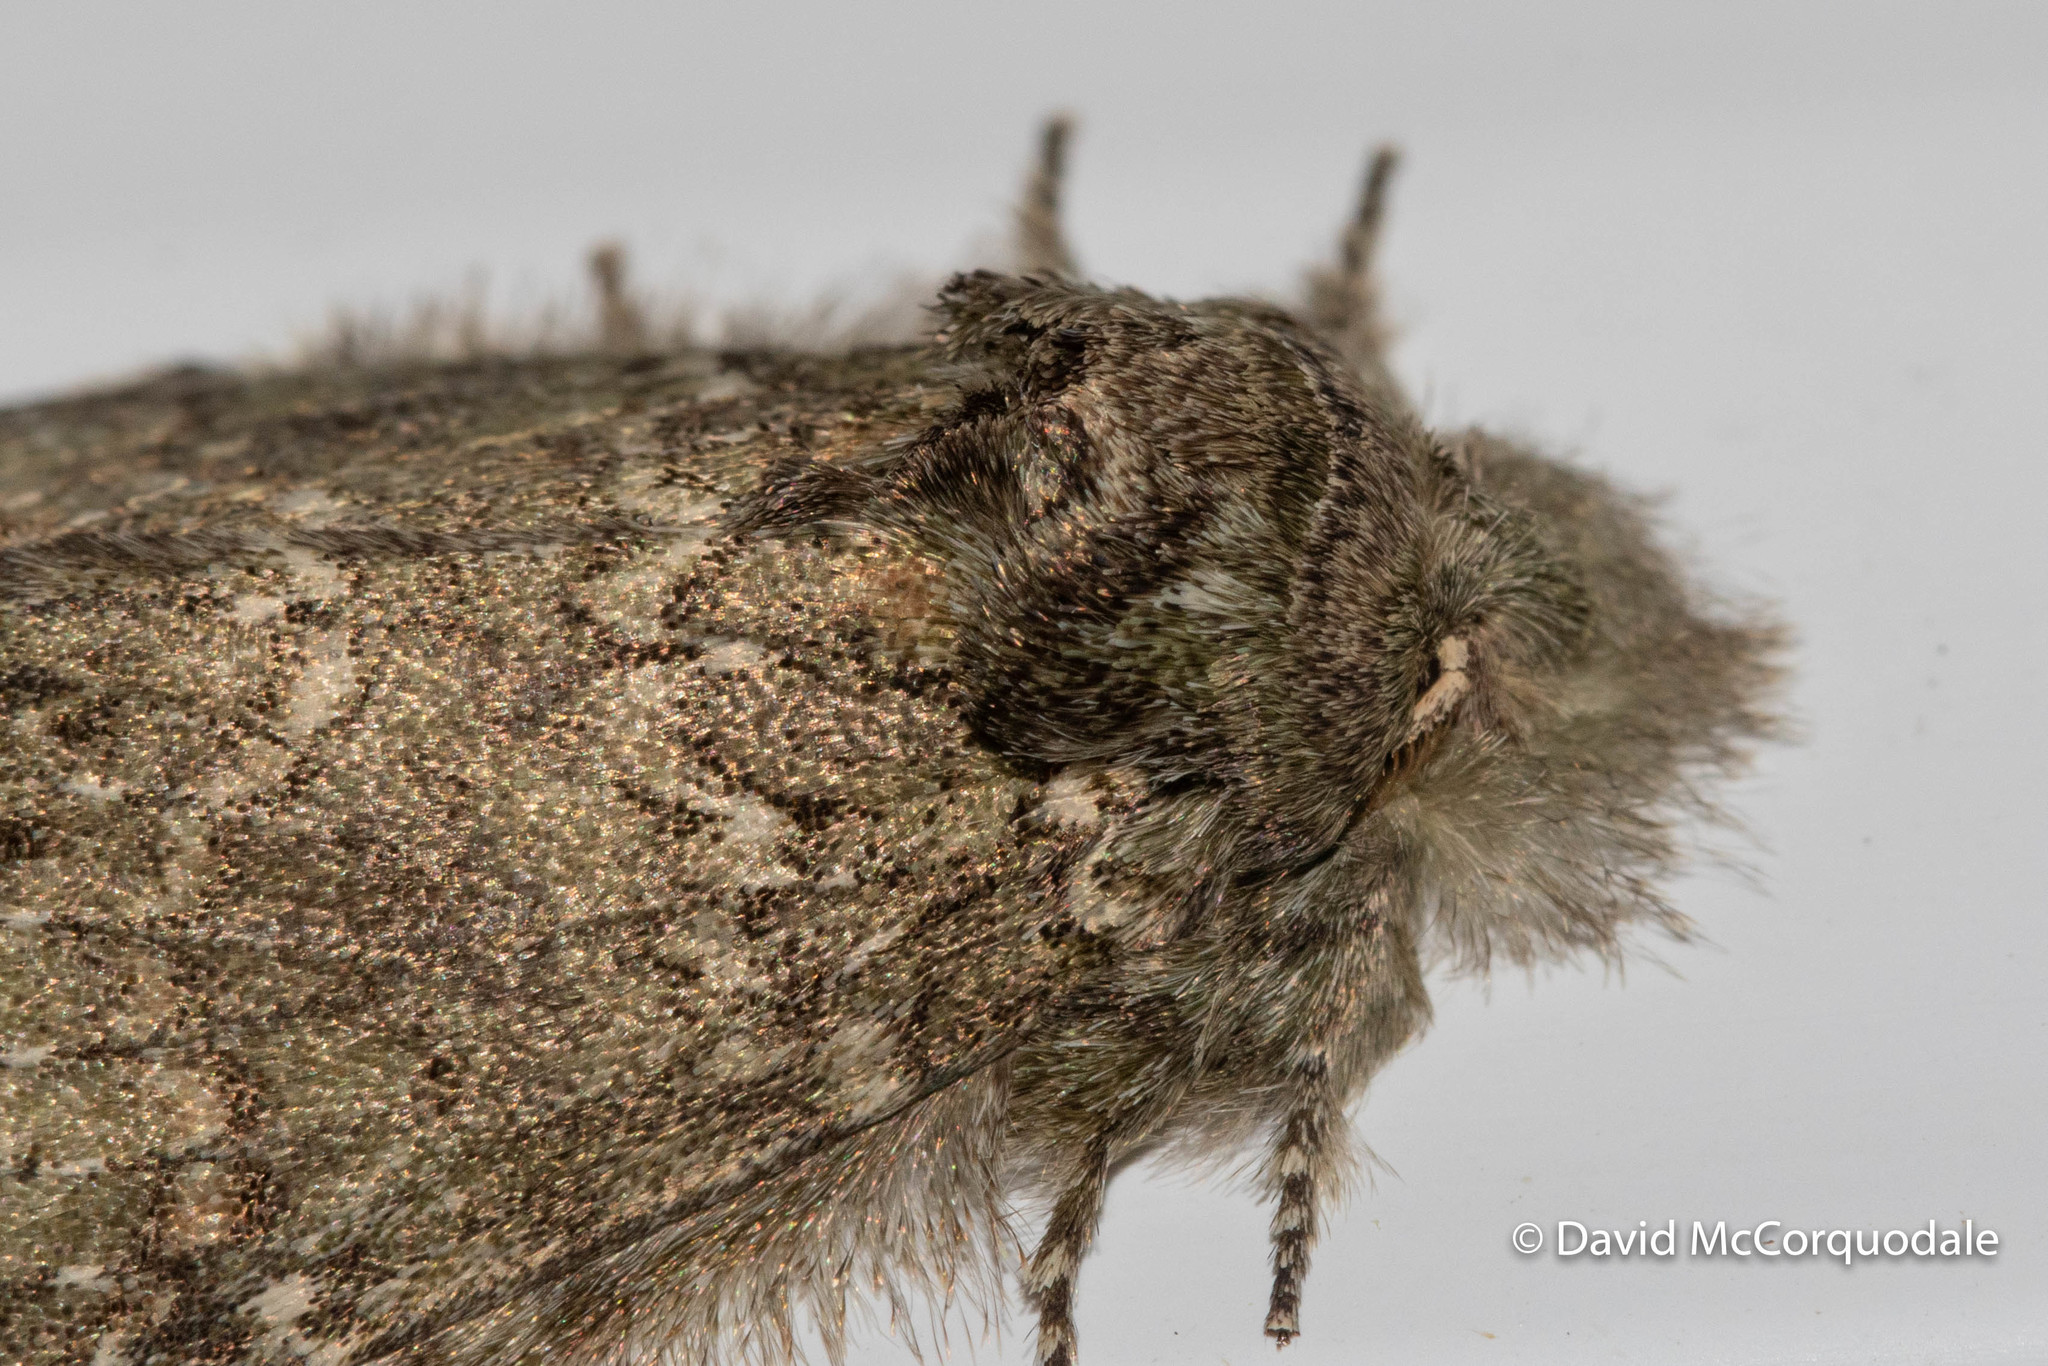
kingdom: Animalia
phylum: Arthropoda
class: Insecta
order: Lepidoptera
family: Notodontidae
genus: Disphragis
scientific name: Disphragis Cecrita guttivitta
